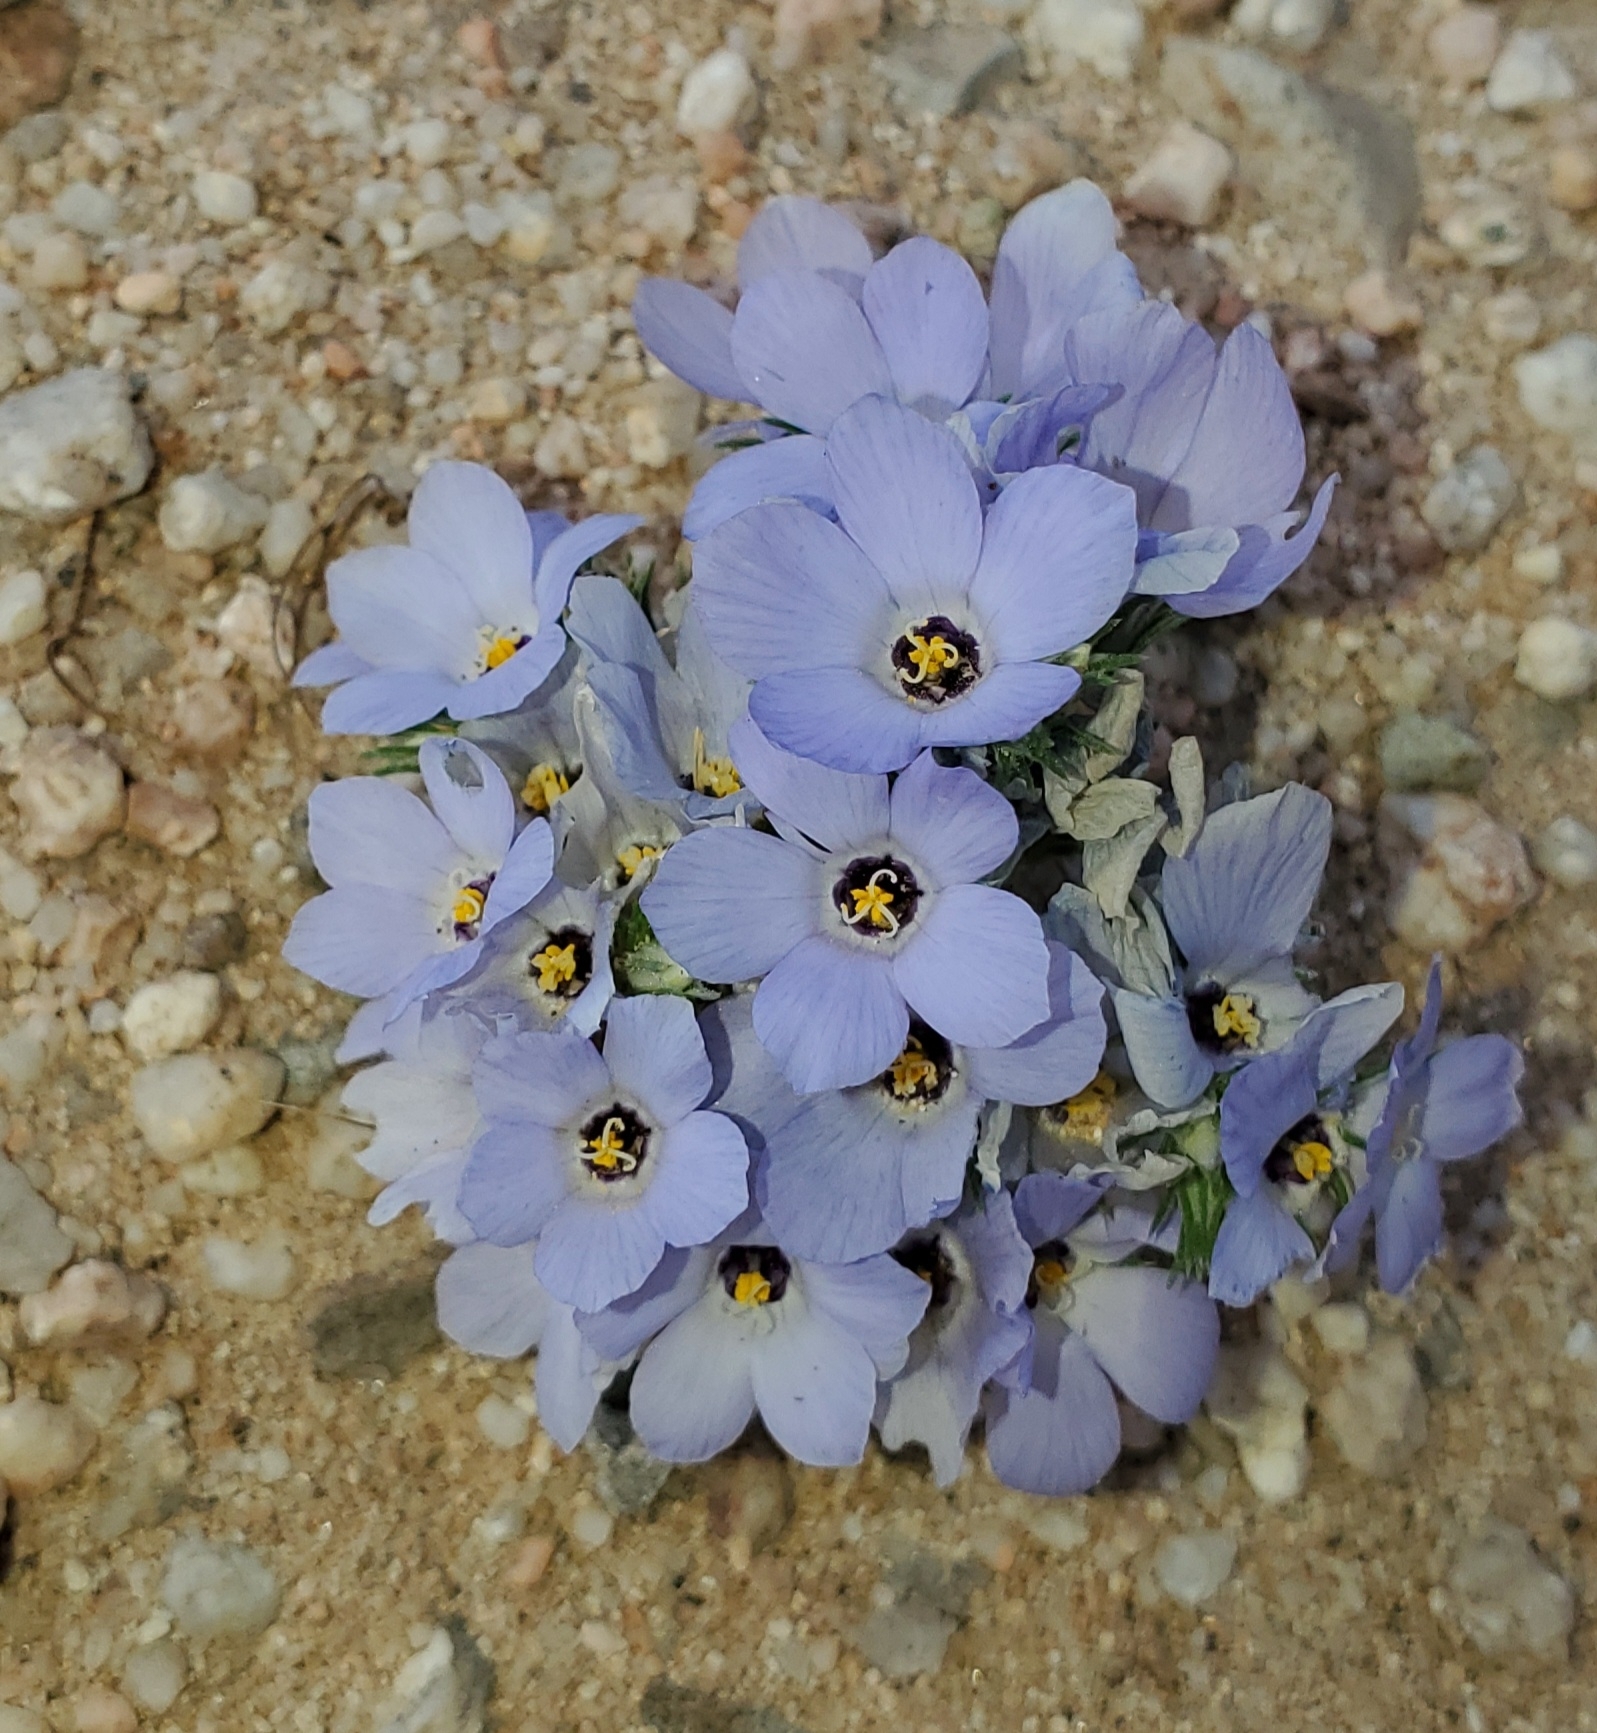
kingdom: Plantae
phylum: Tracheophyta
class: Magnoliopsida
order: Ericales
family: Polemoniaceae
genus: Linanthus
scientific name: Linanthus parryae
